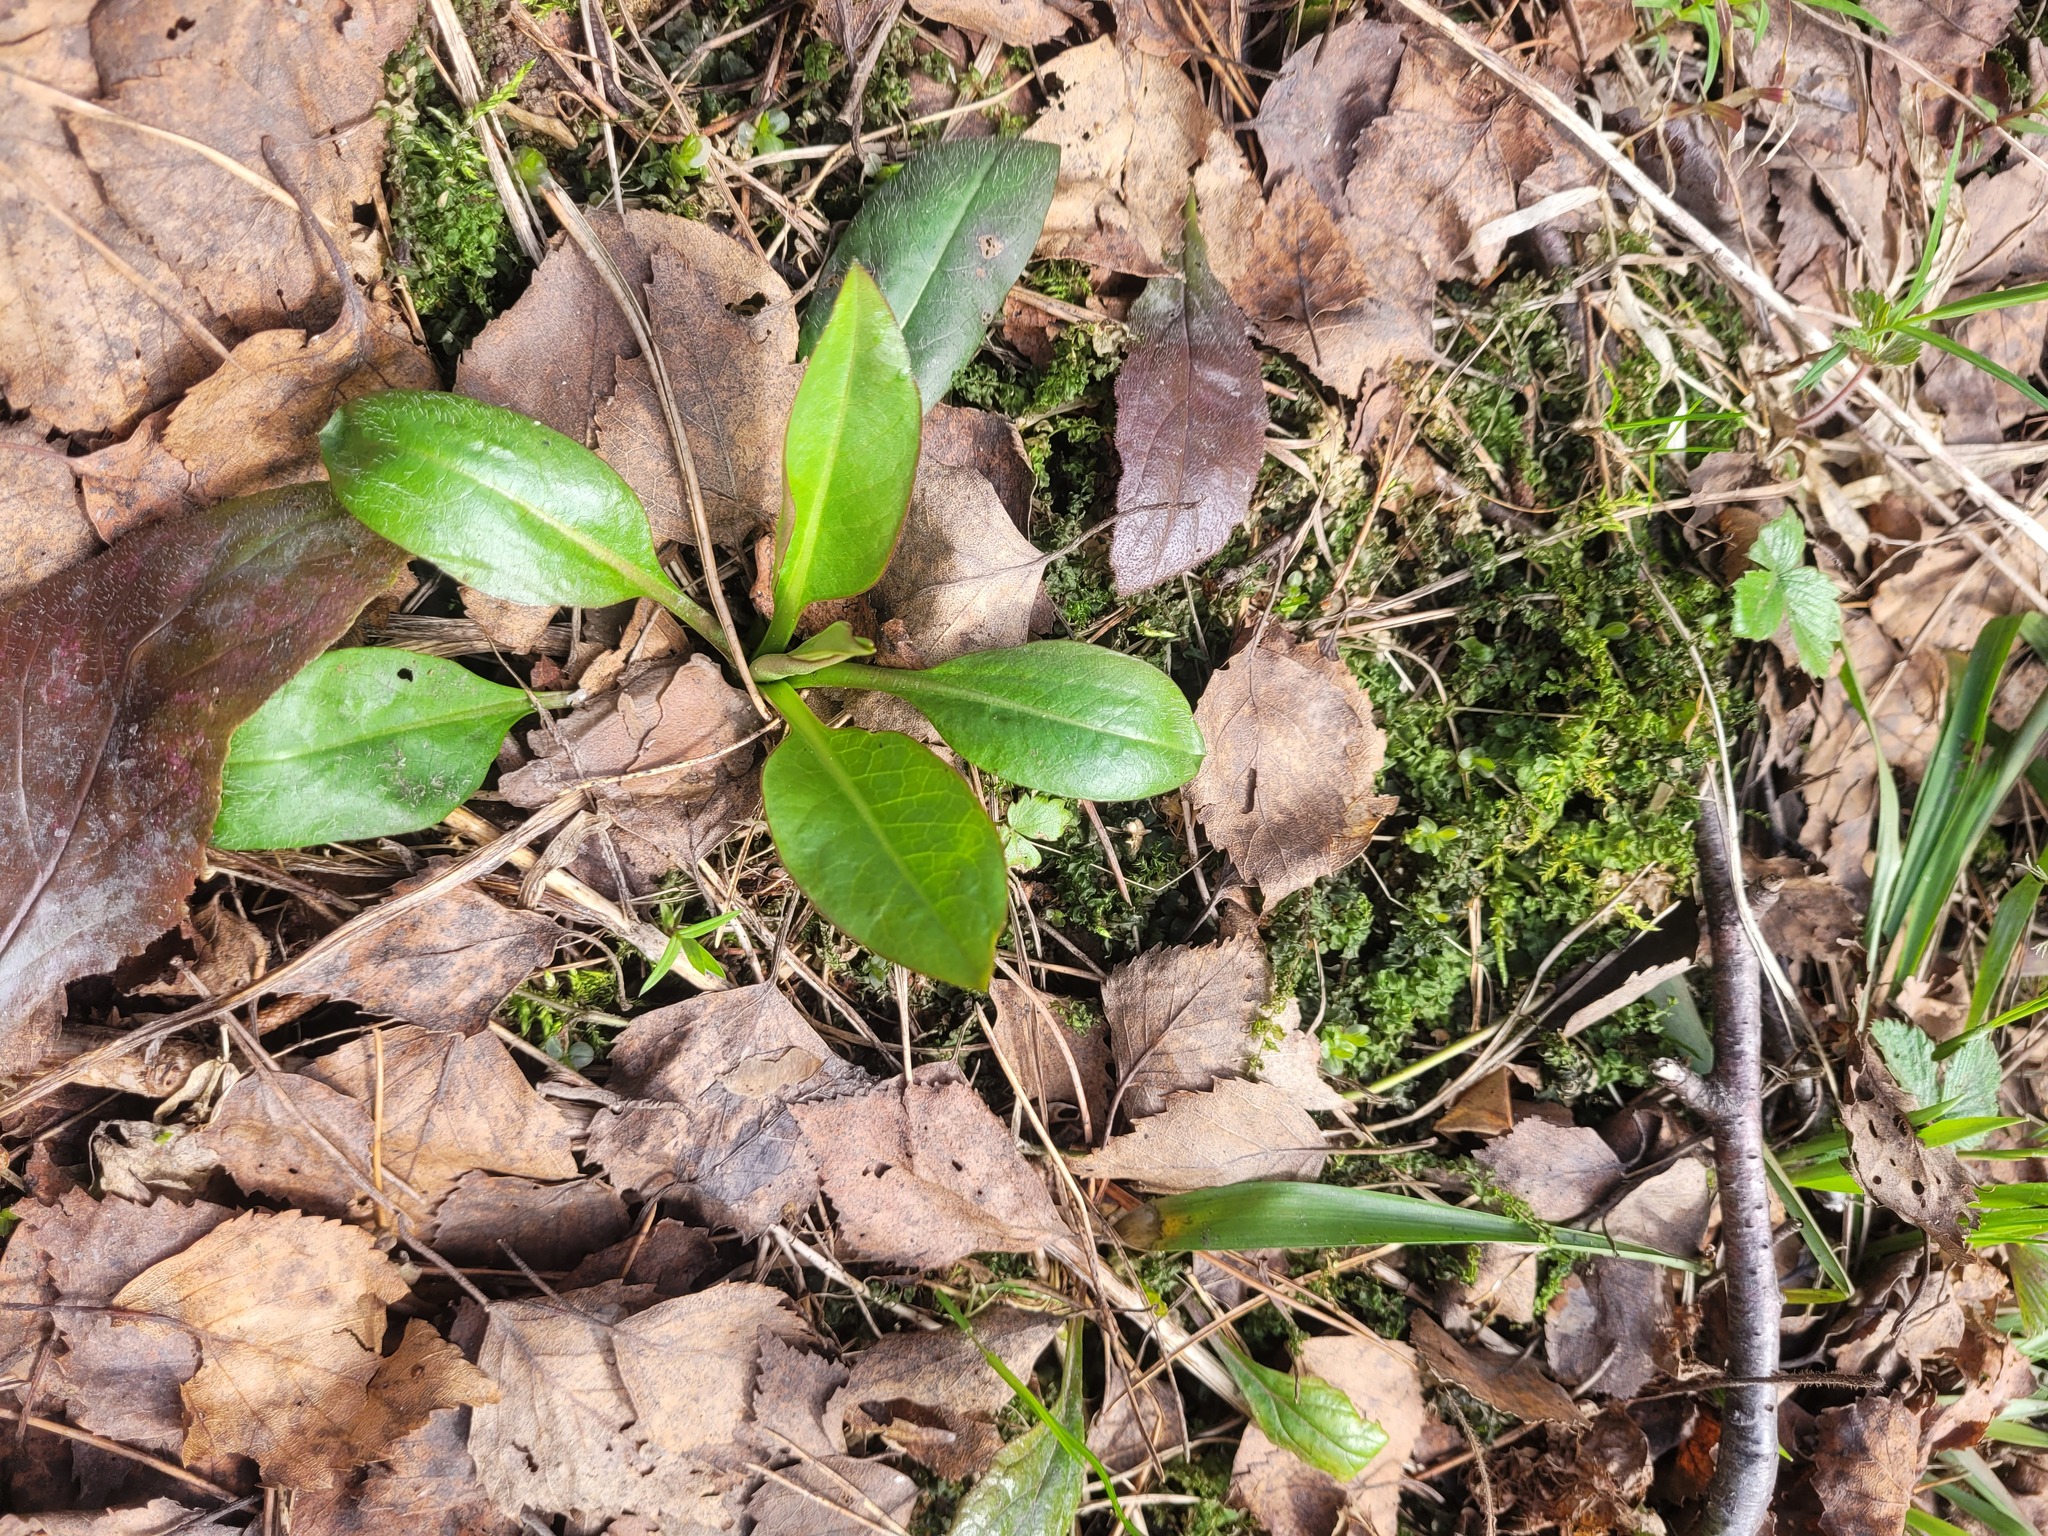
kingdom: Plantae
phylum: Tracheophyta
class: Magnoliopsida
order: Dipsacales
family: Caprifoliaceae
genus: Succisa
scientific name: Succisa pratensis
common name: Devil's-bit
